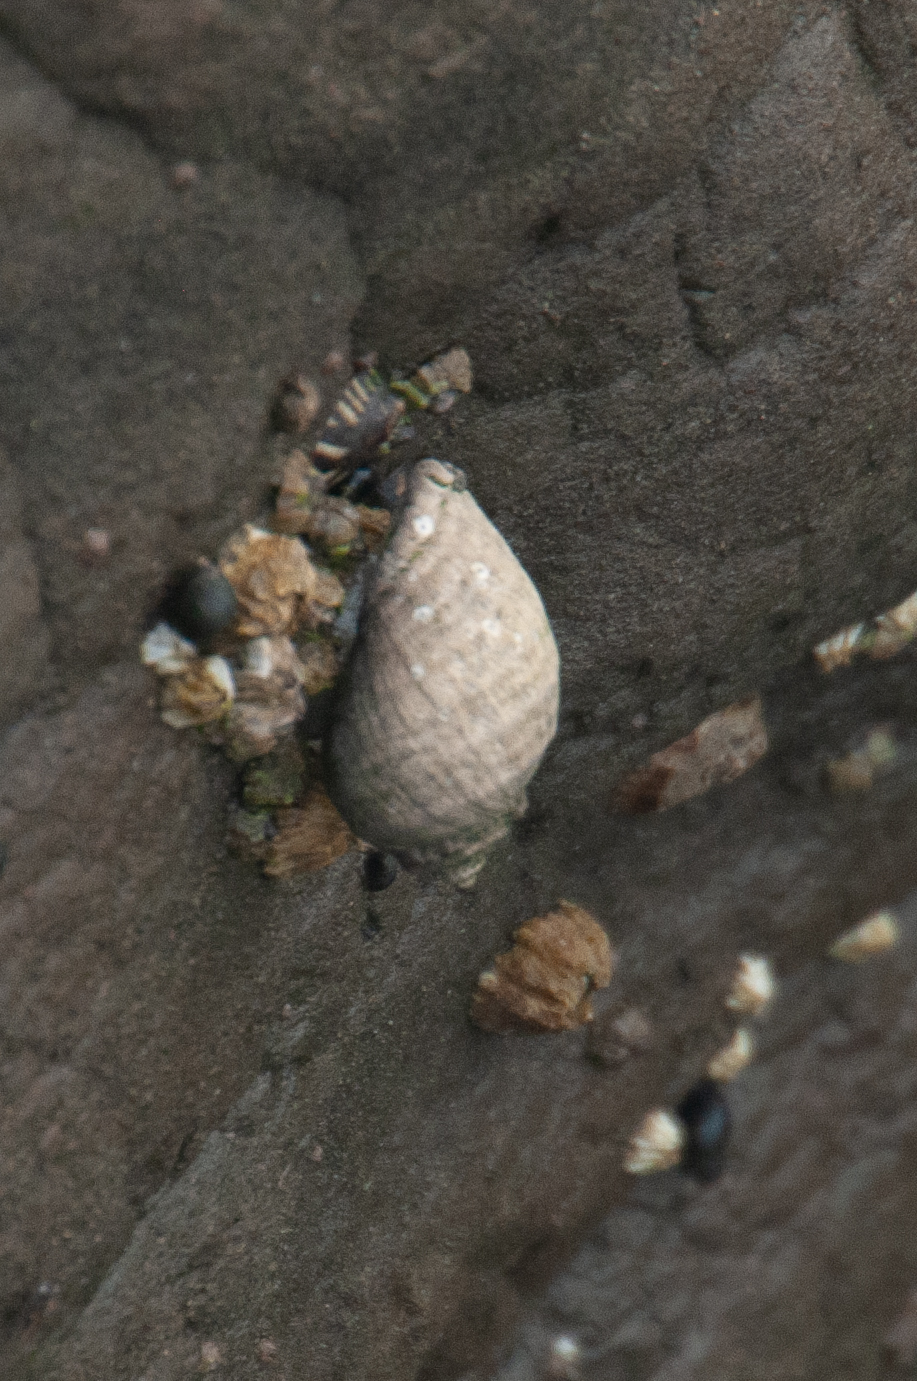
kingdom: Animalia
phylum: Mollusca
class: Gastropoda
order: Neogastropoda
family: Muricidae
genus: Nucella
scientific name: Nucella ostrina
